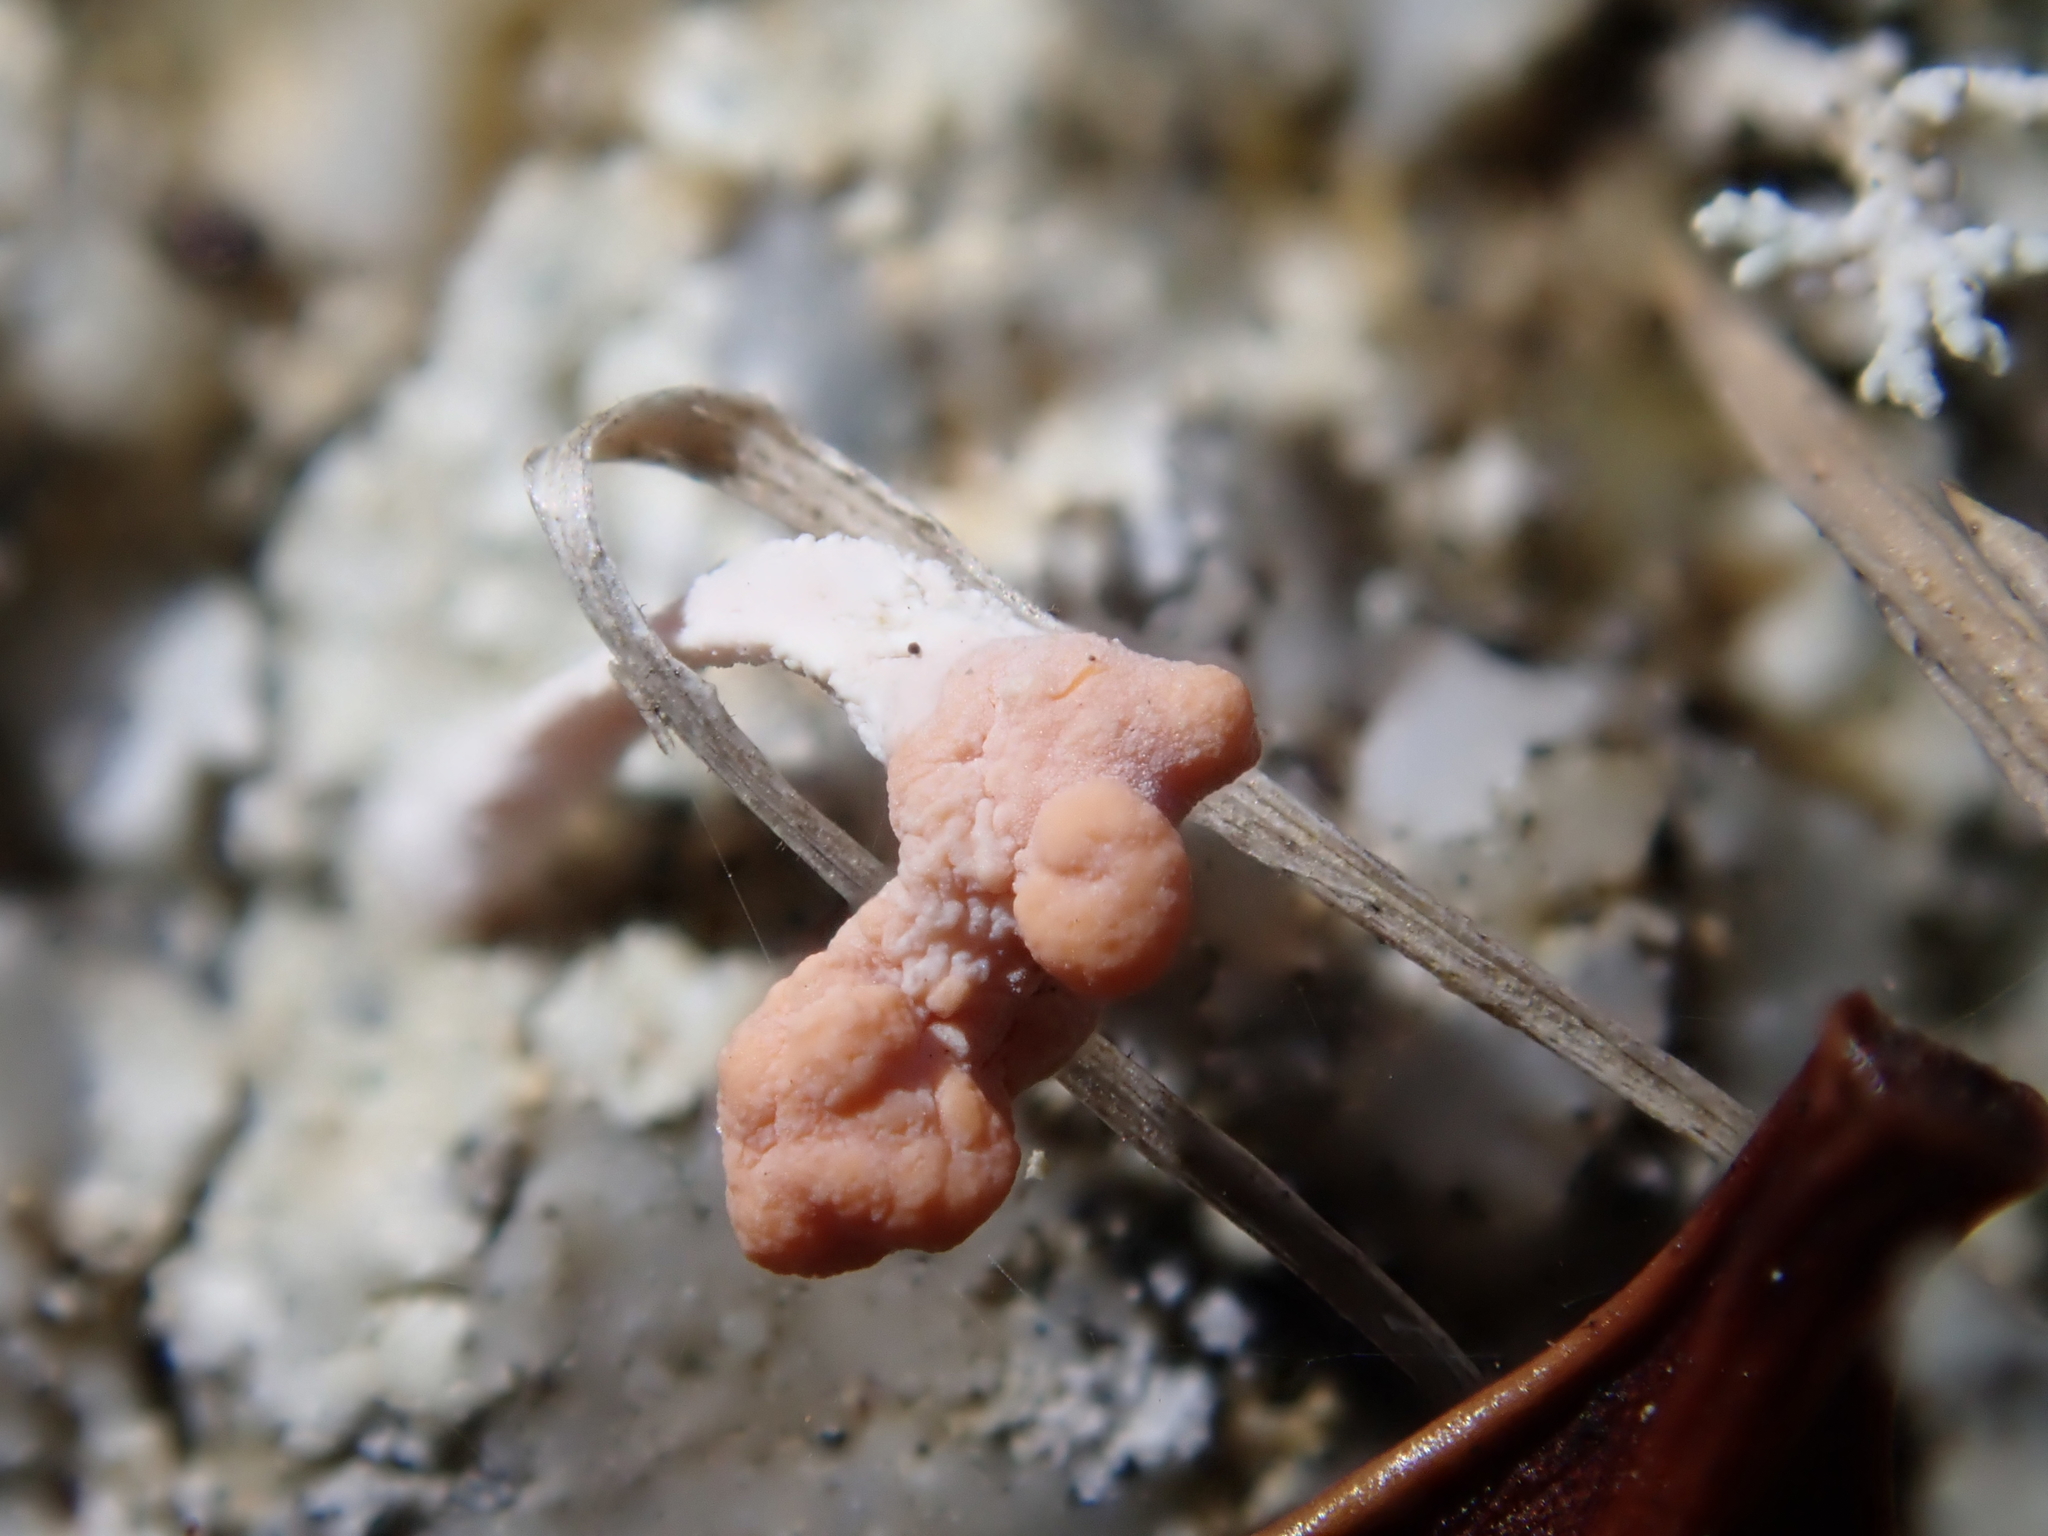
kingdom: Fungi
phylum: Ascomycota
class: Lecanoromycetes
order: Pertusariales
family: Icmadophilaceae
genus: Dibaeis
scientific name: Dibaeis arcuata
